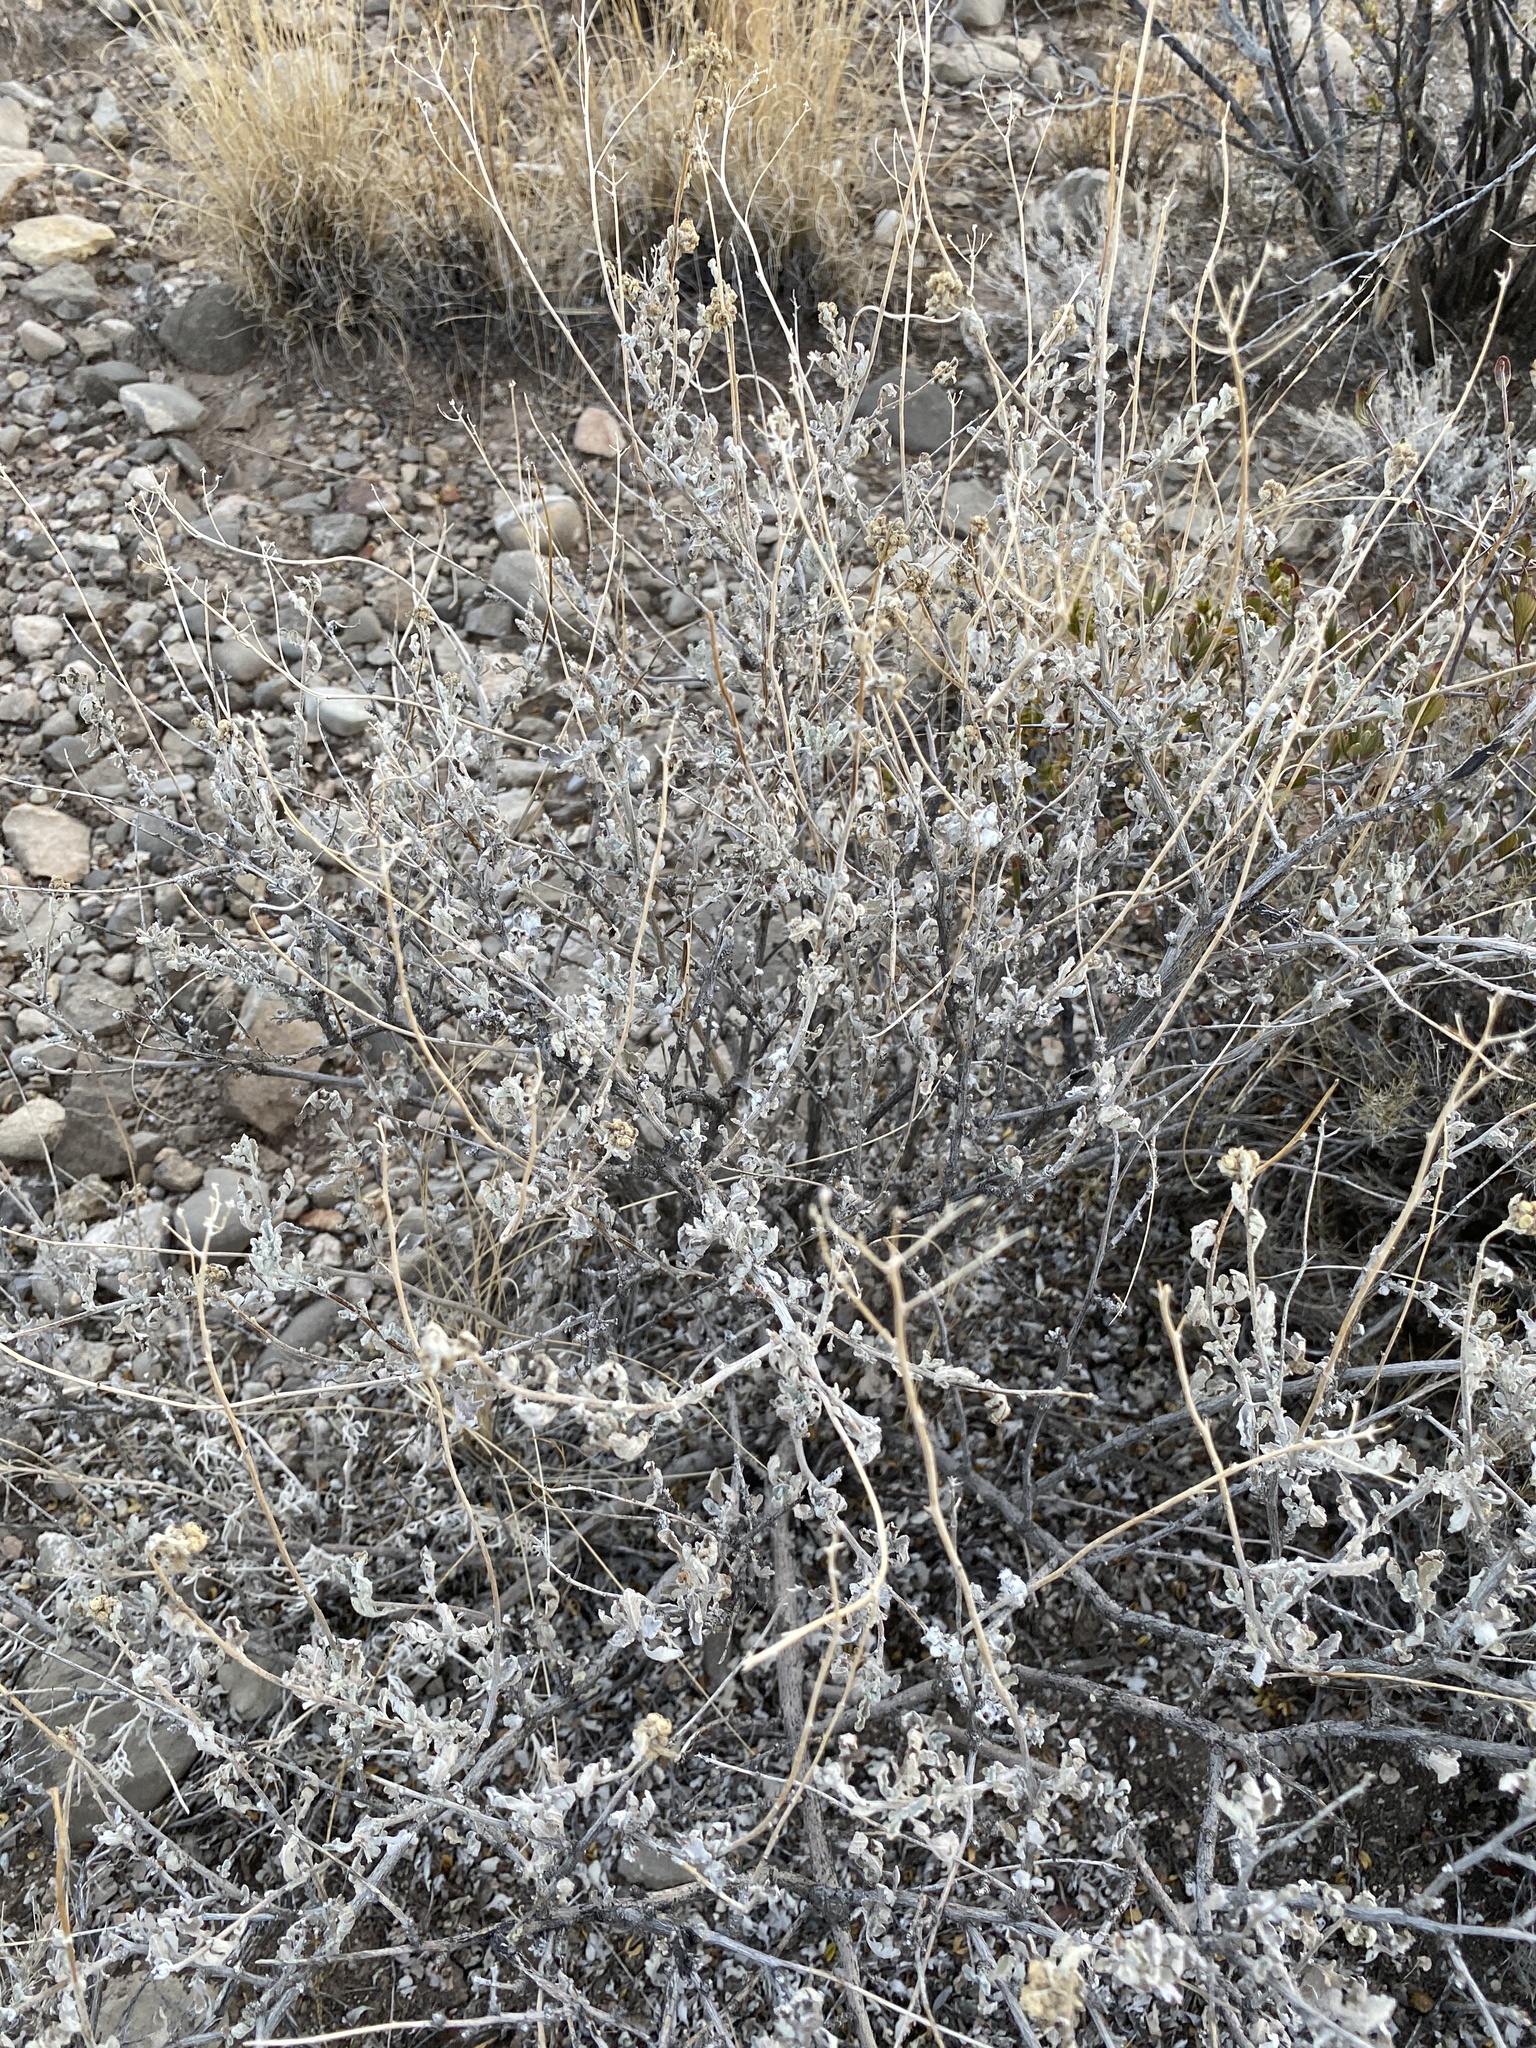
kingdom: Plantae
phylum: Tracheophyta
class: Magnoliopsida
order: Asterales
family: Asteraceae
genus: Parthenium
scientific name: Parthenium incanum
